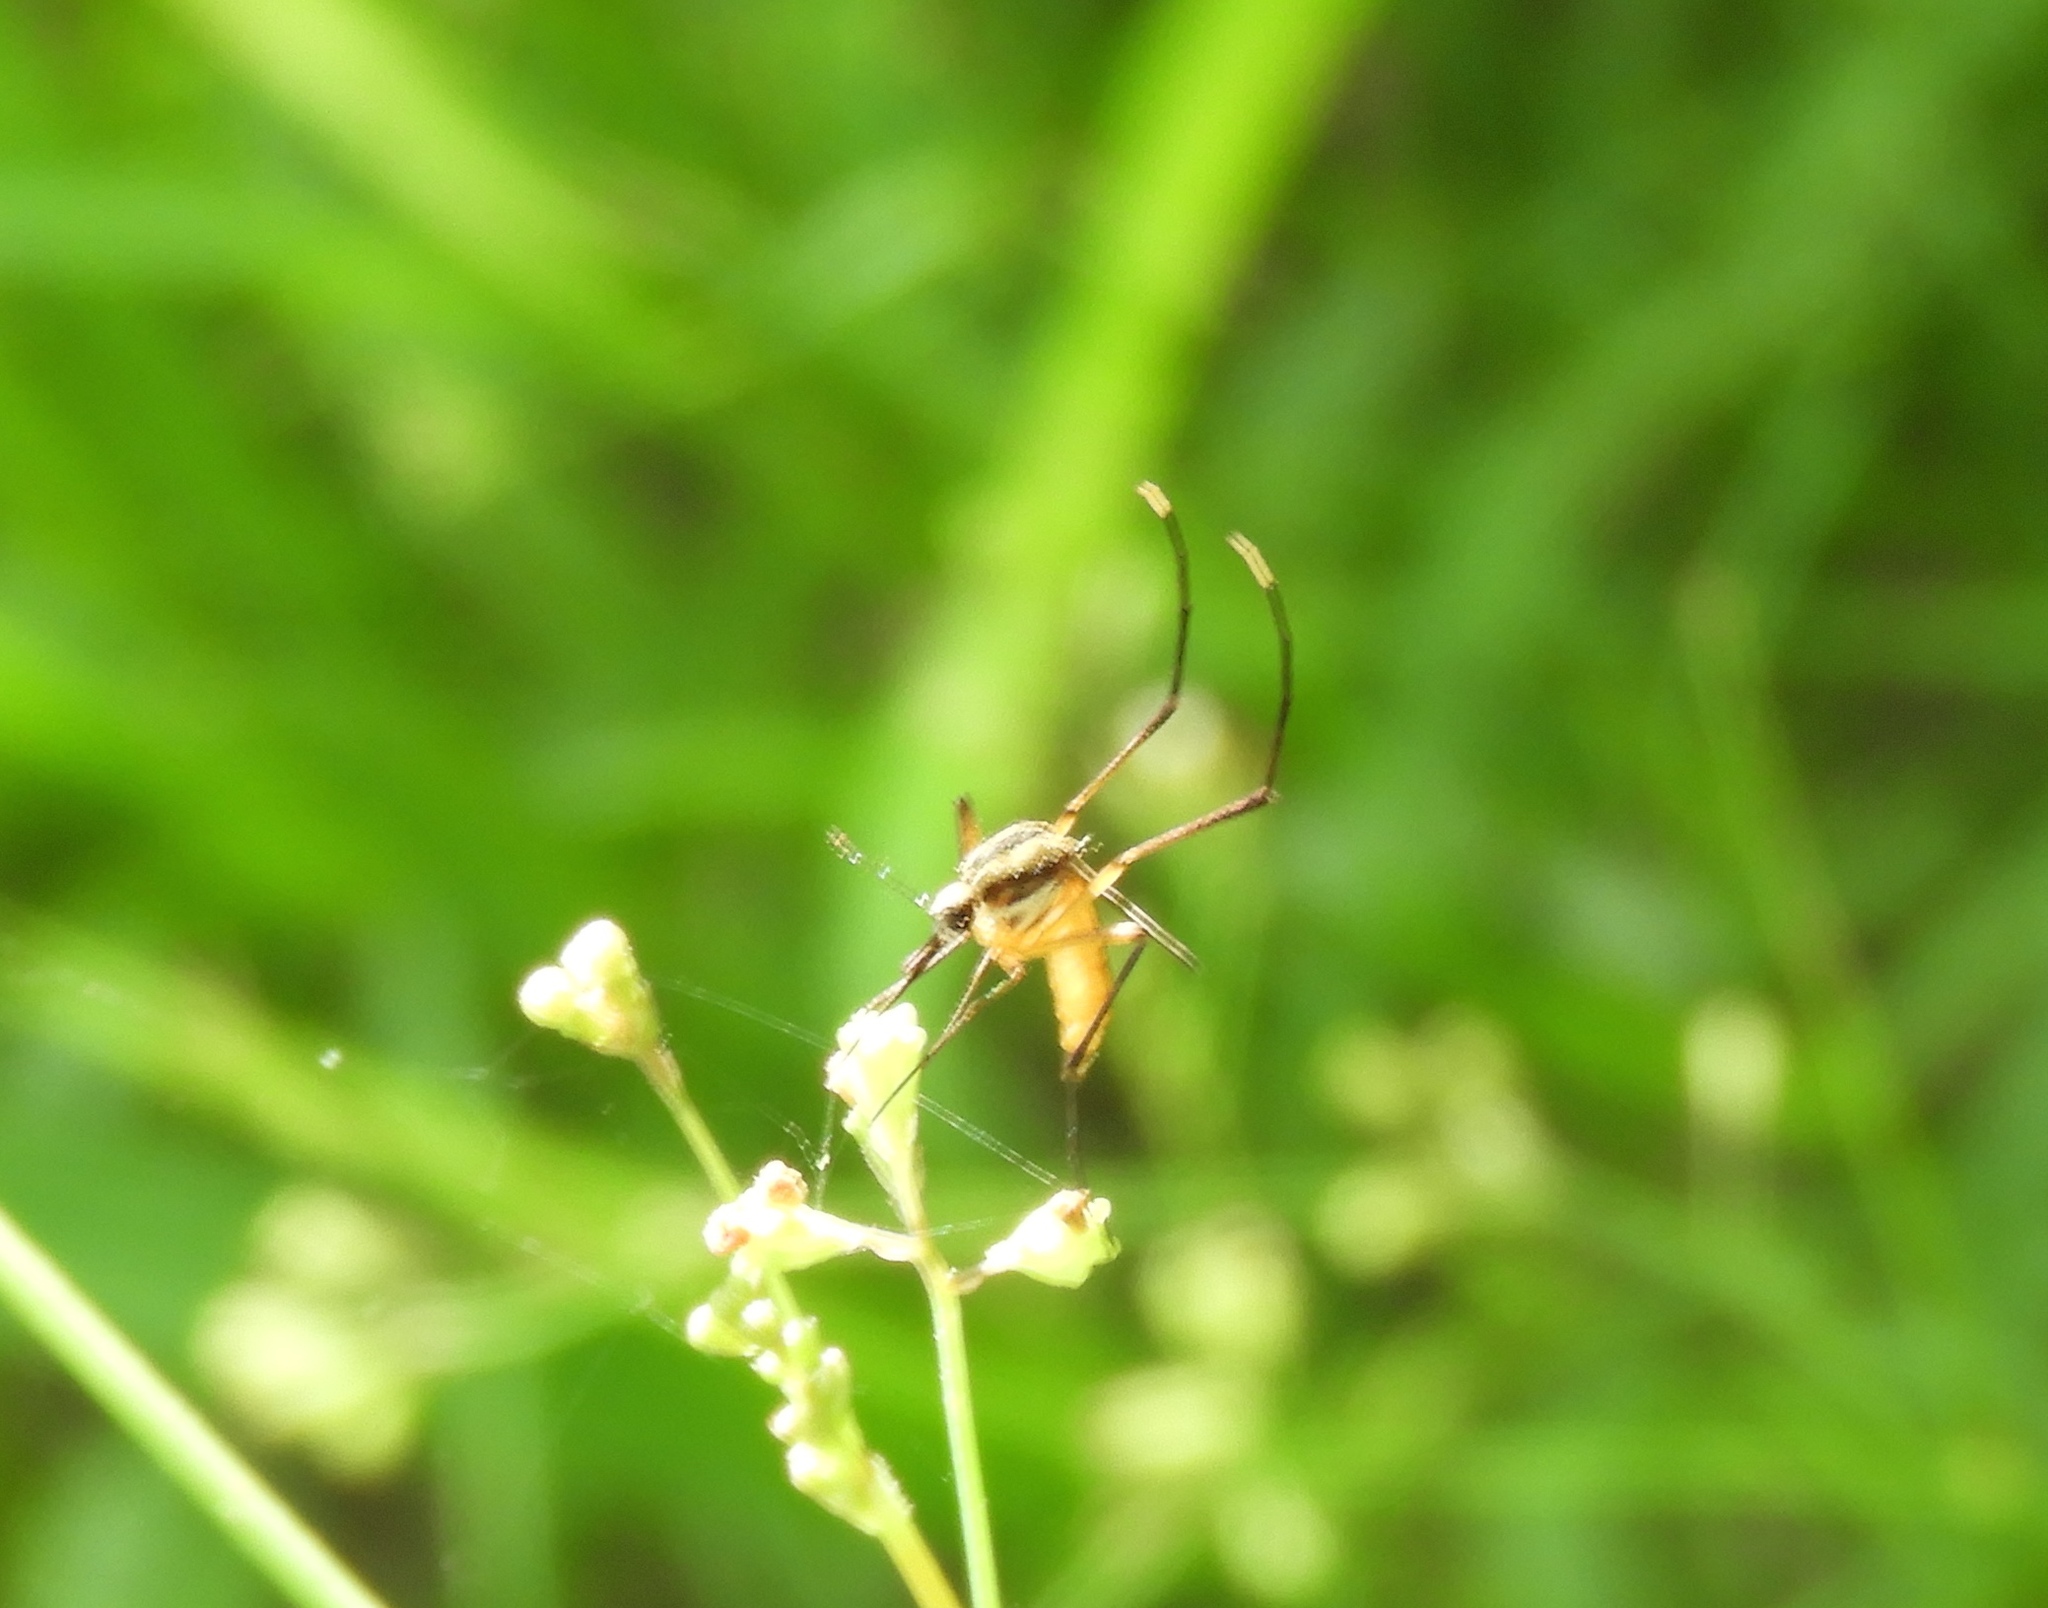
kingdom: Animalia
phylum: Arthropoda
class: Insecta
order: Diptera
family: Culicidae
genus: Janthinosoma
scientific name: Janthinosoma
